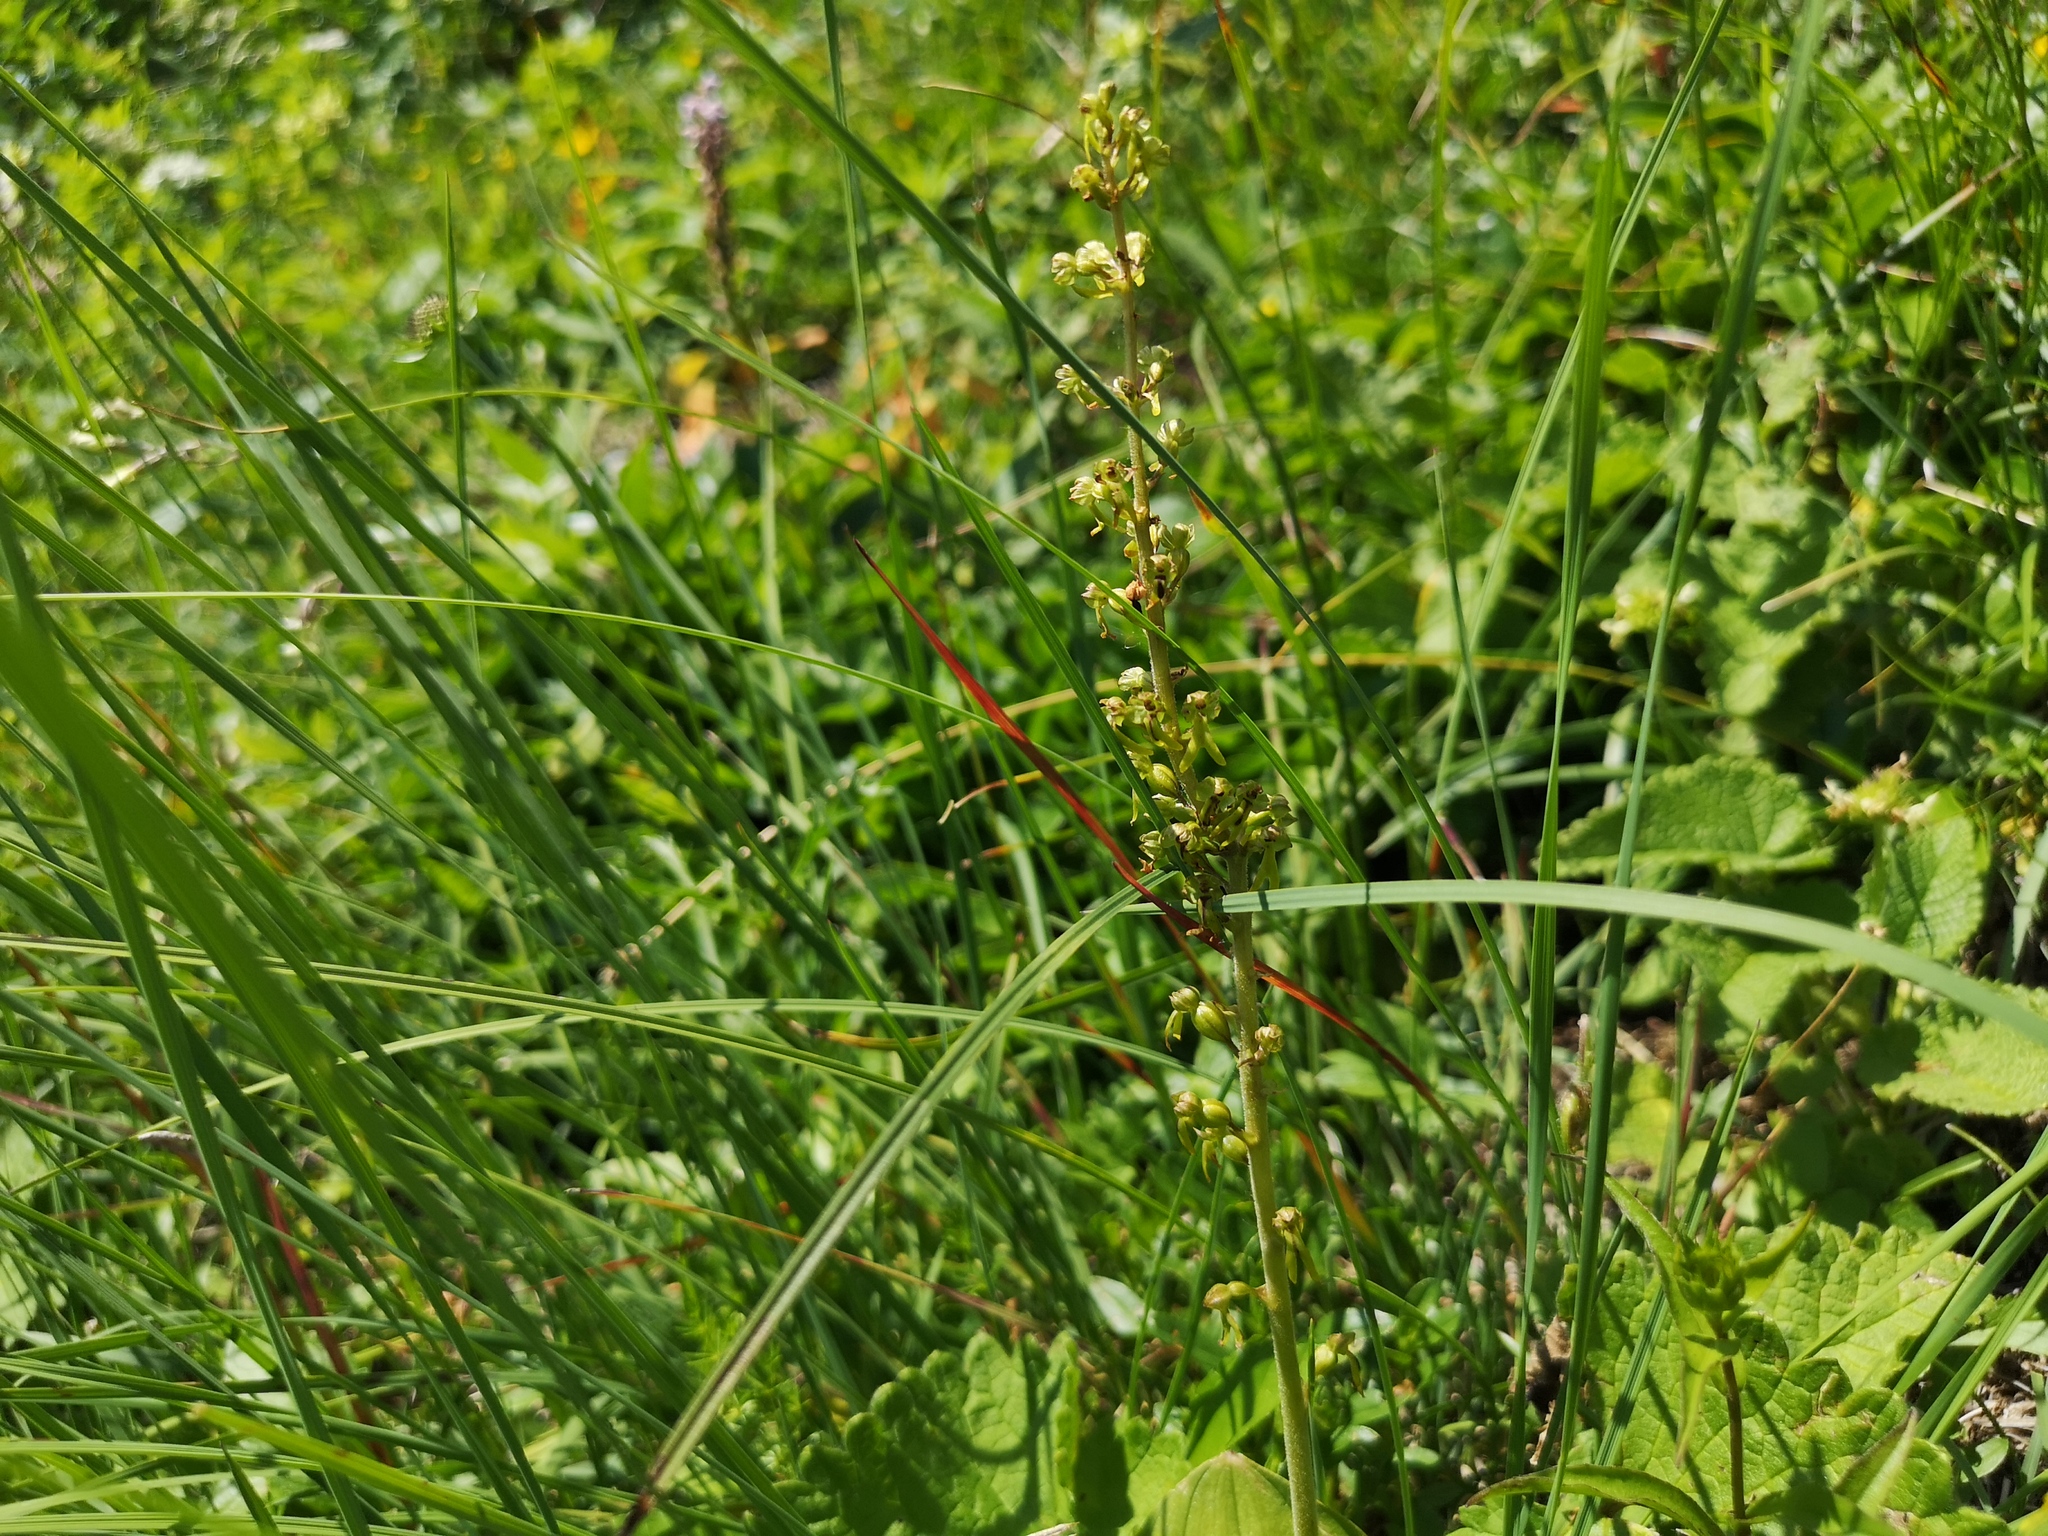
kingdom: Plantae
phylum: Tracheophyta
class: Liliopsida
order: Asparagales
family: Orchidaceae
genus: Neottia
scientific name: Neottia ovata
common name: Common twayblade
